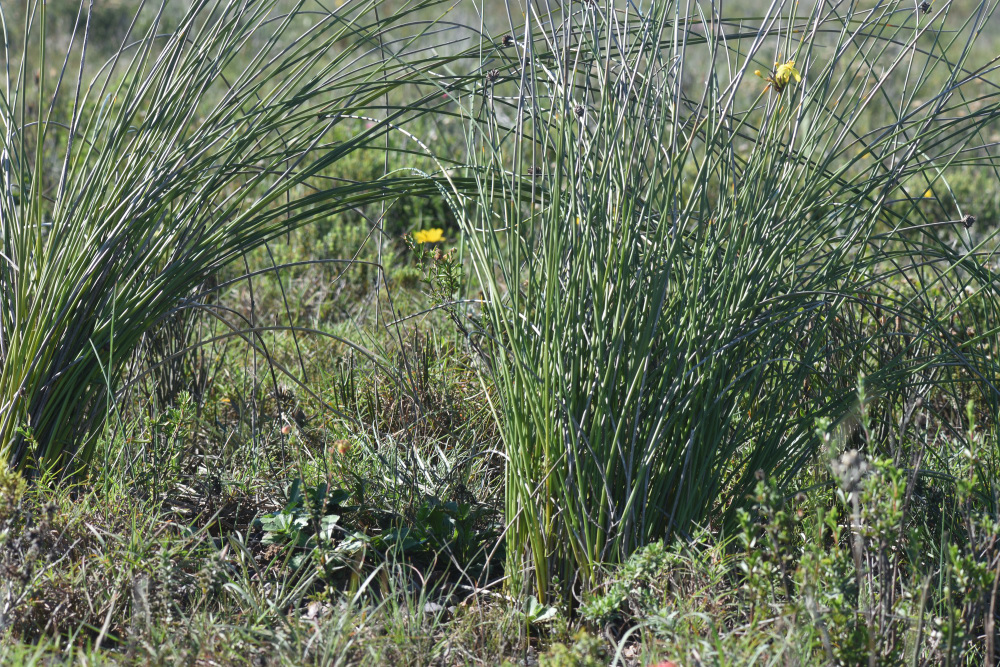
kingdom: Plantae
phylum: Tracheophyta
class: Liliopsida
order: Asparagales
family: Iridaceae
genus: Bobartia
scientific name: Bobartia orientalis
